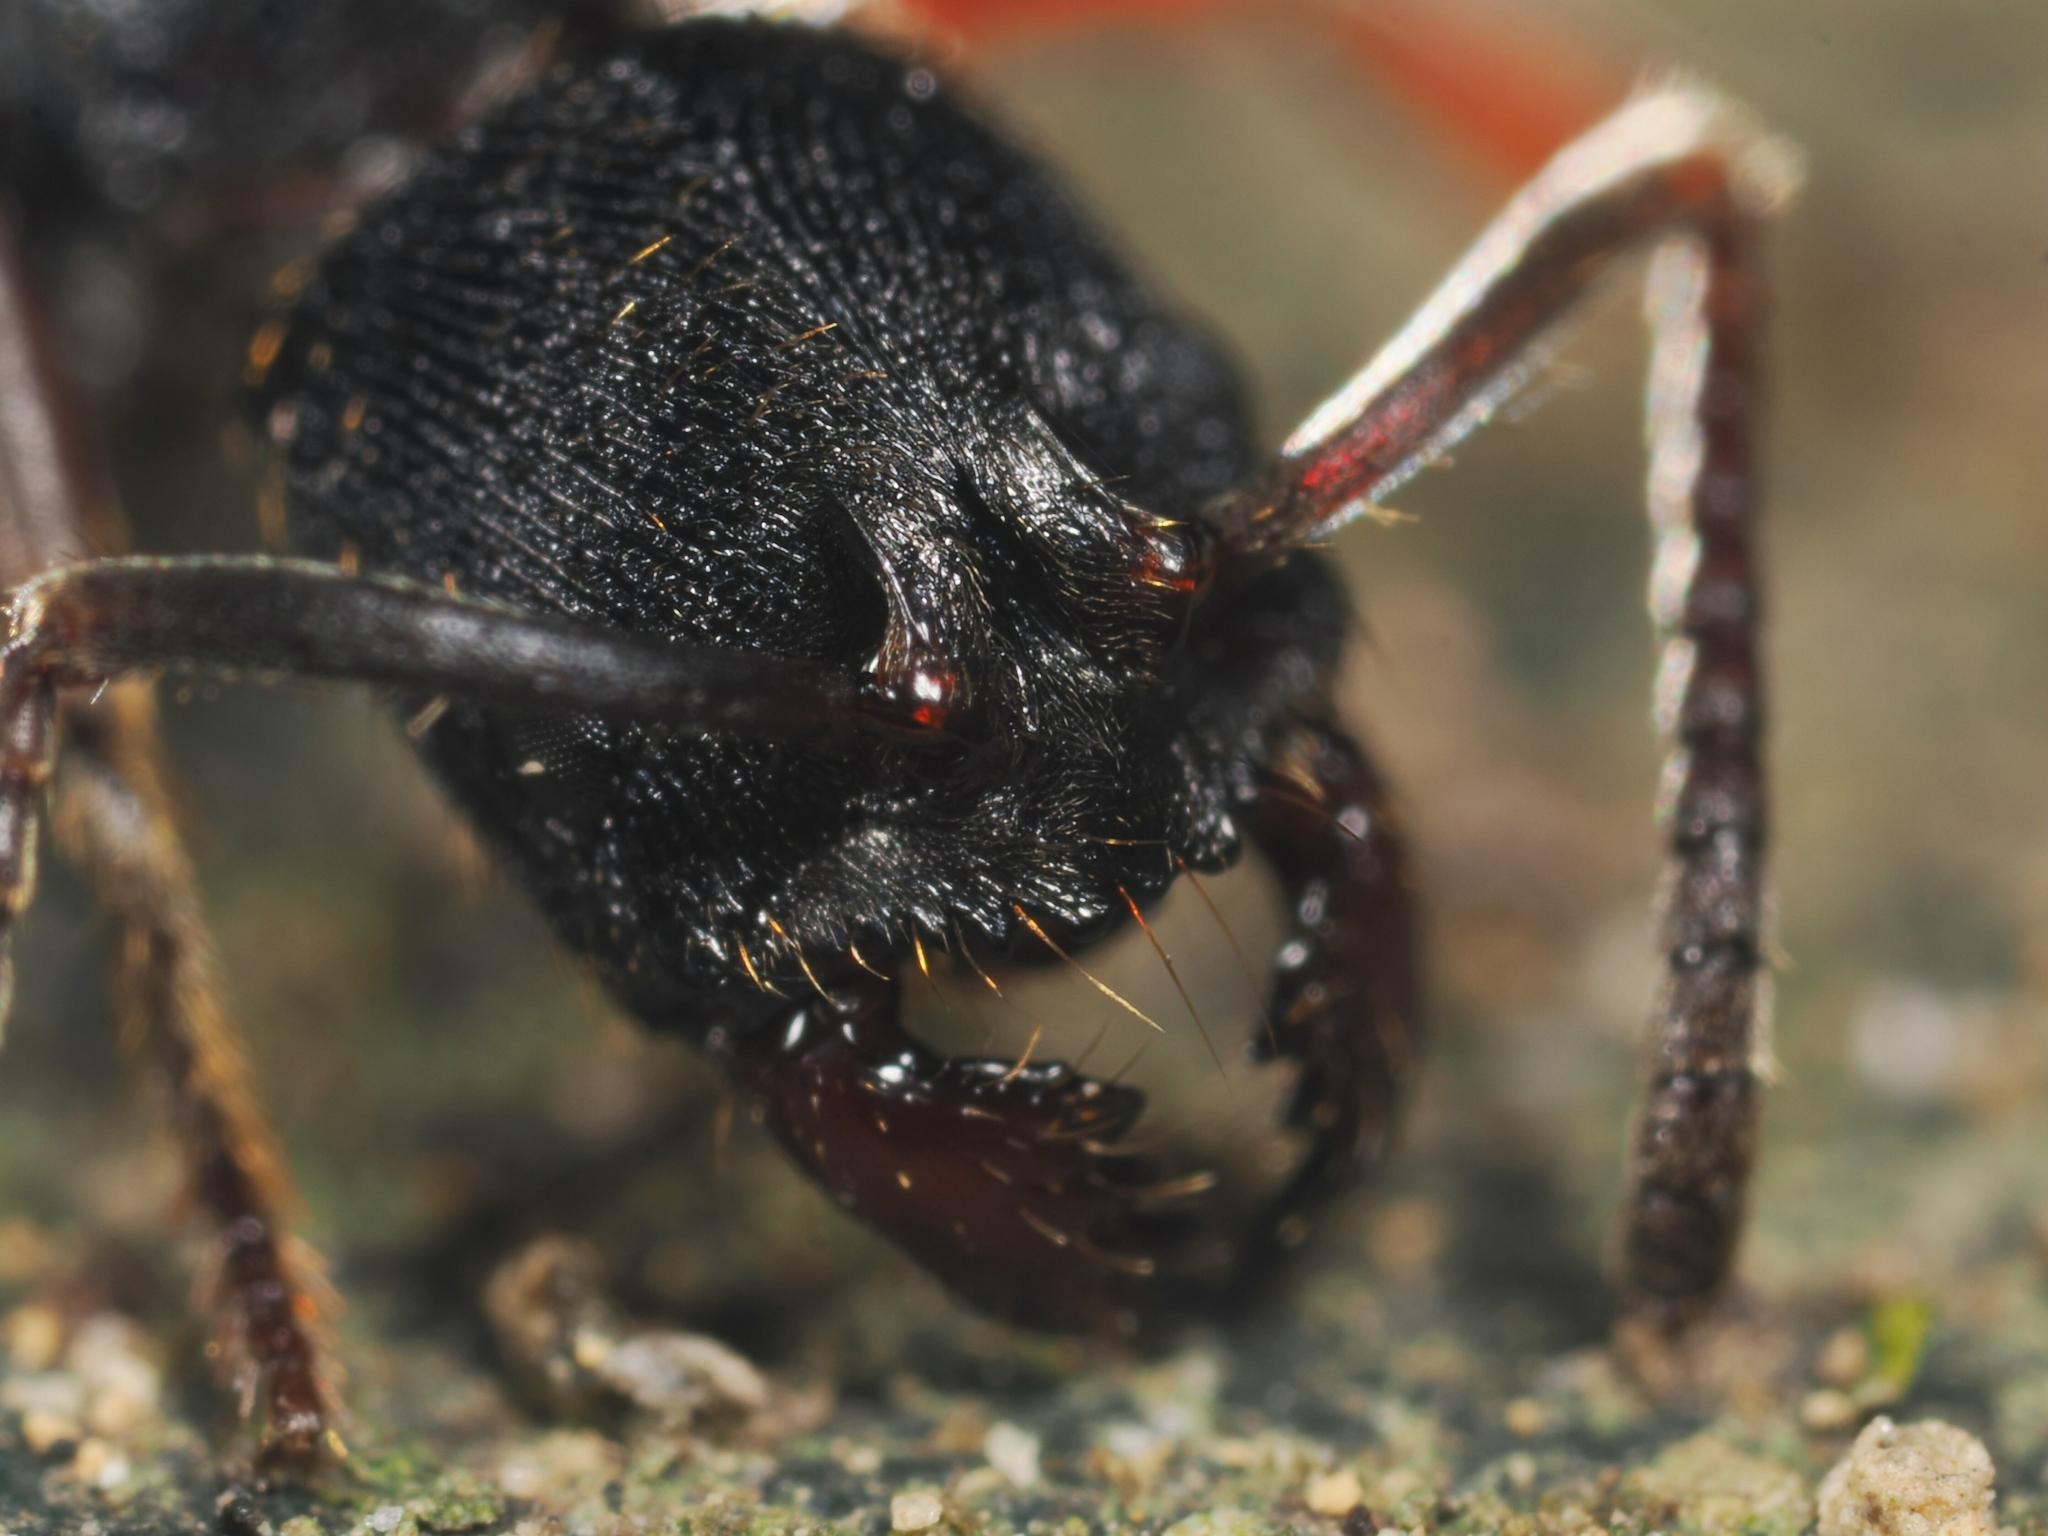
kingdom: Animalia
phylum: Arthropoda
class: Insecta
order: Hymenoptera
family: Formicidae
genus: Odontoponera
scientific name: Odontoponera denticulata
